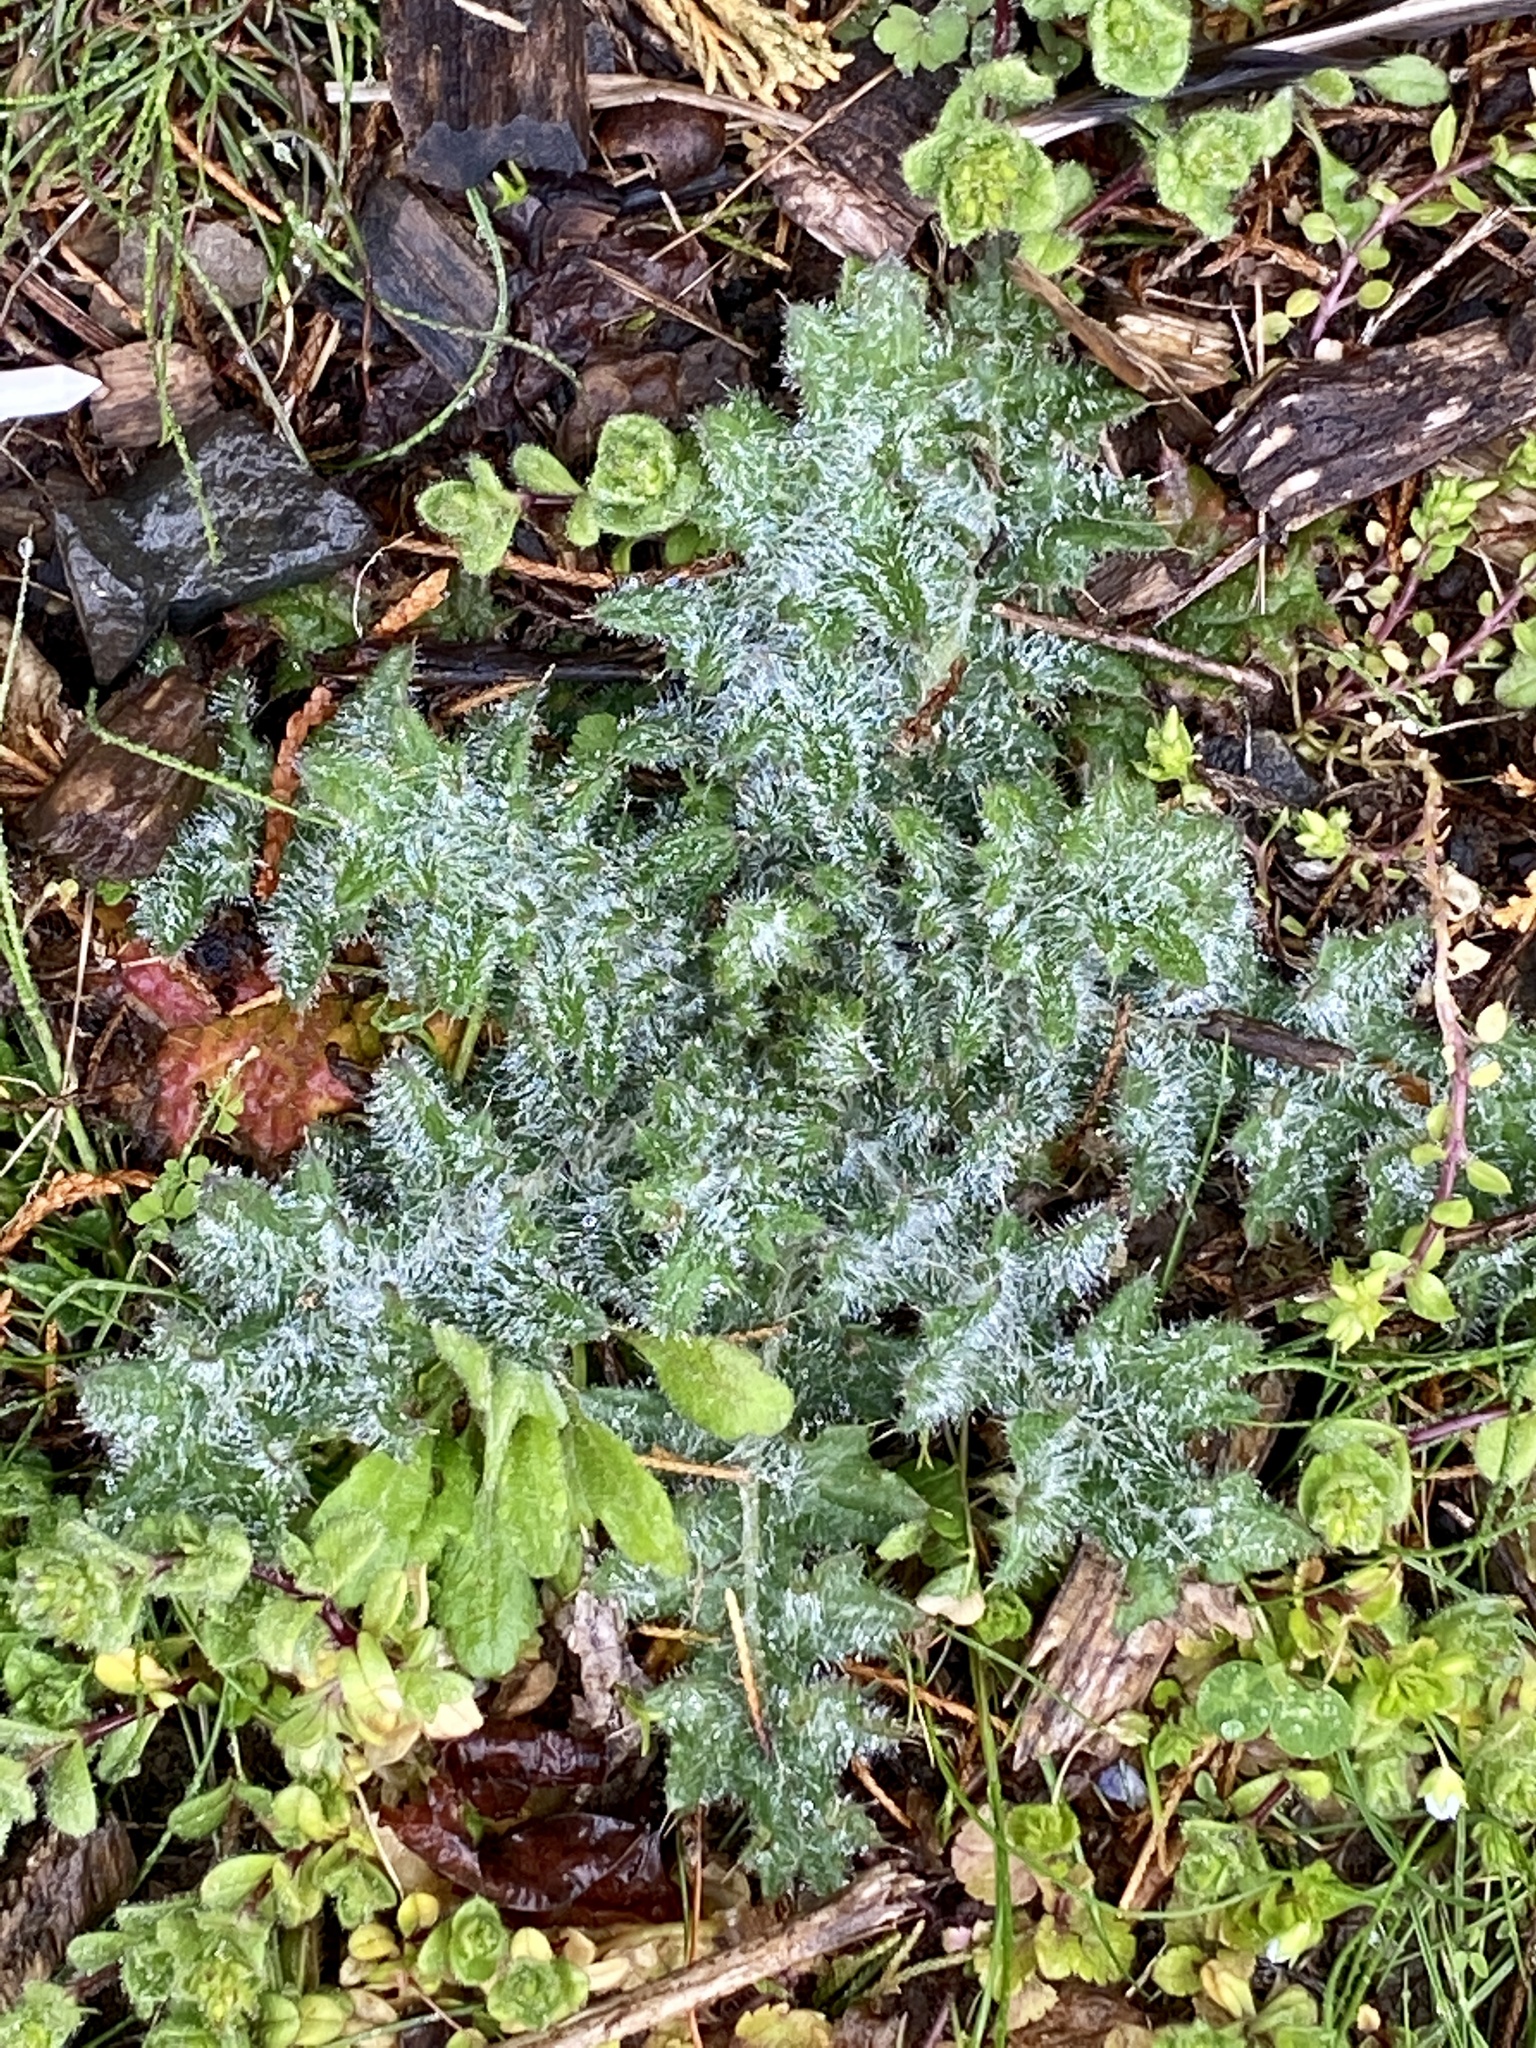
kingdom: Plantae
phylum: Tracheophyta
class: Magnoliopsida
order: Asterales
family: Asteraceae
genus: Cirsium
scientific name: Cirsium vulgare
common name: Bull thistle
